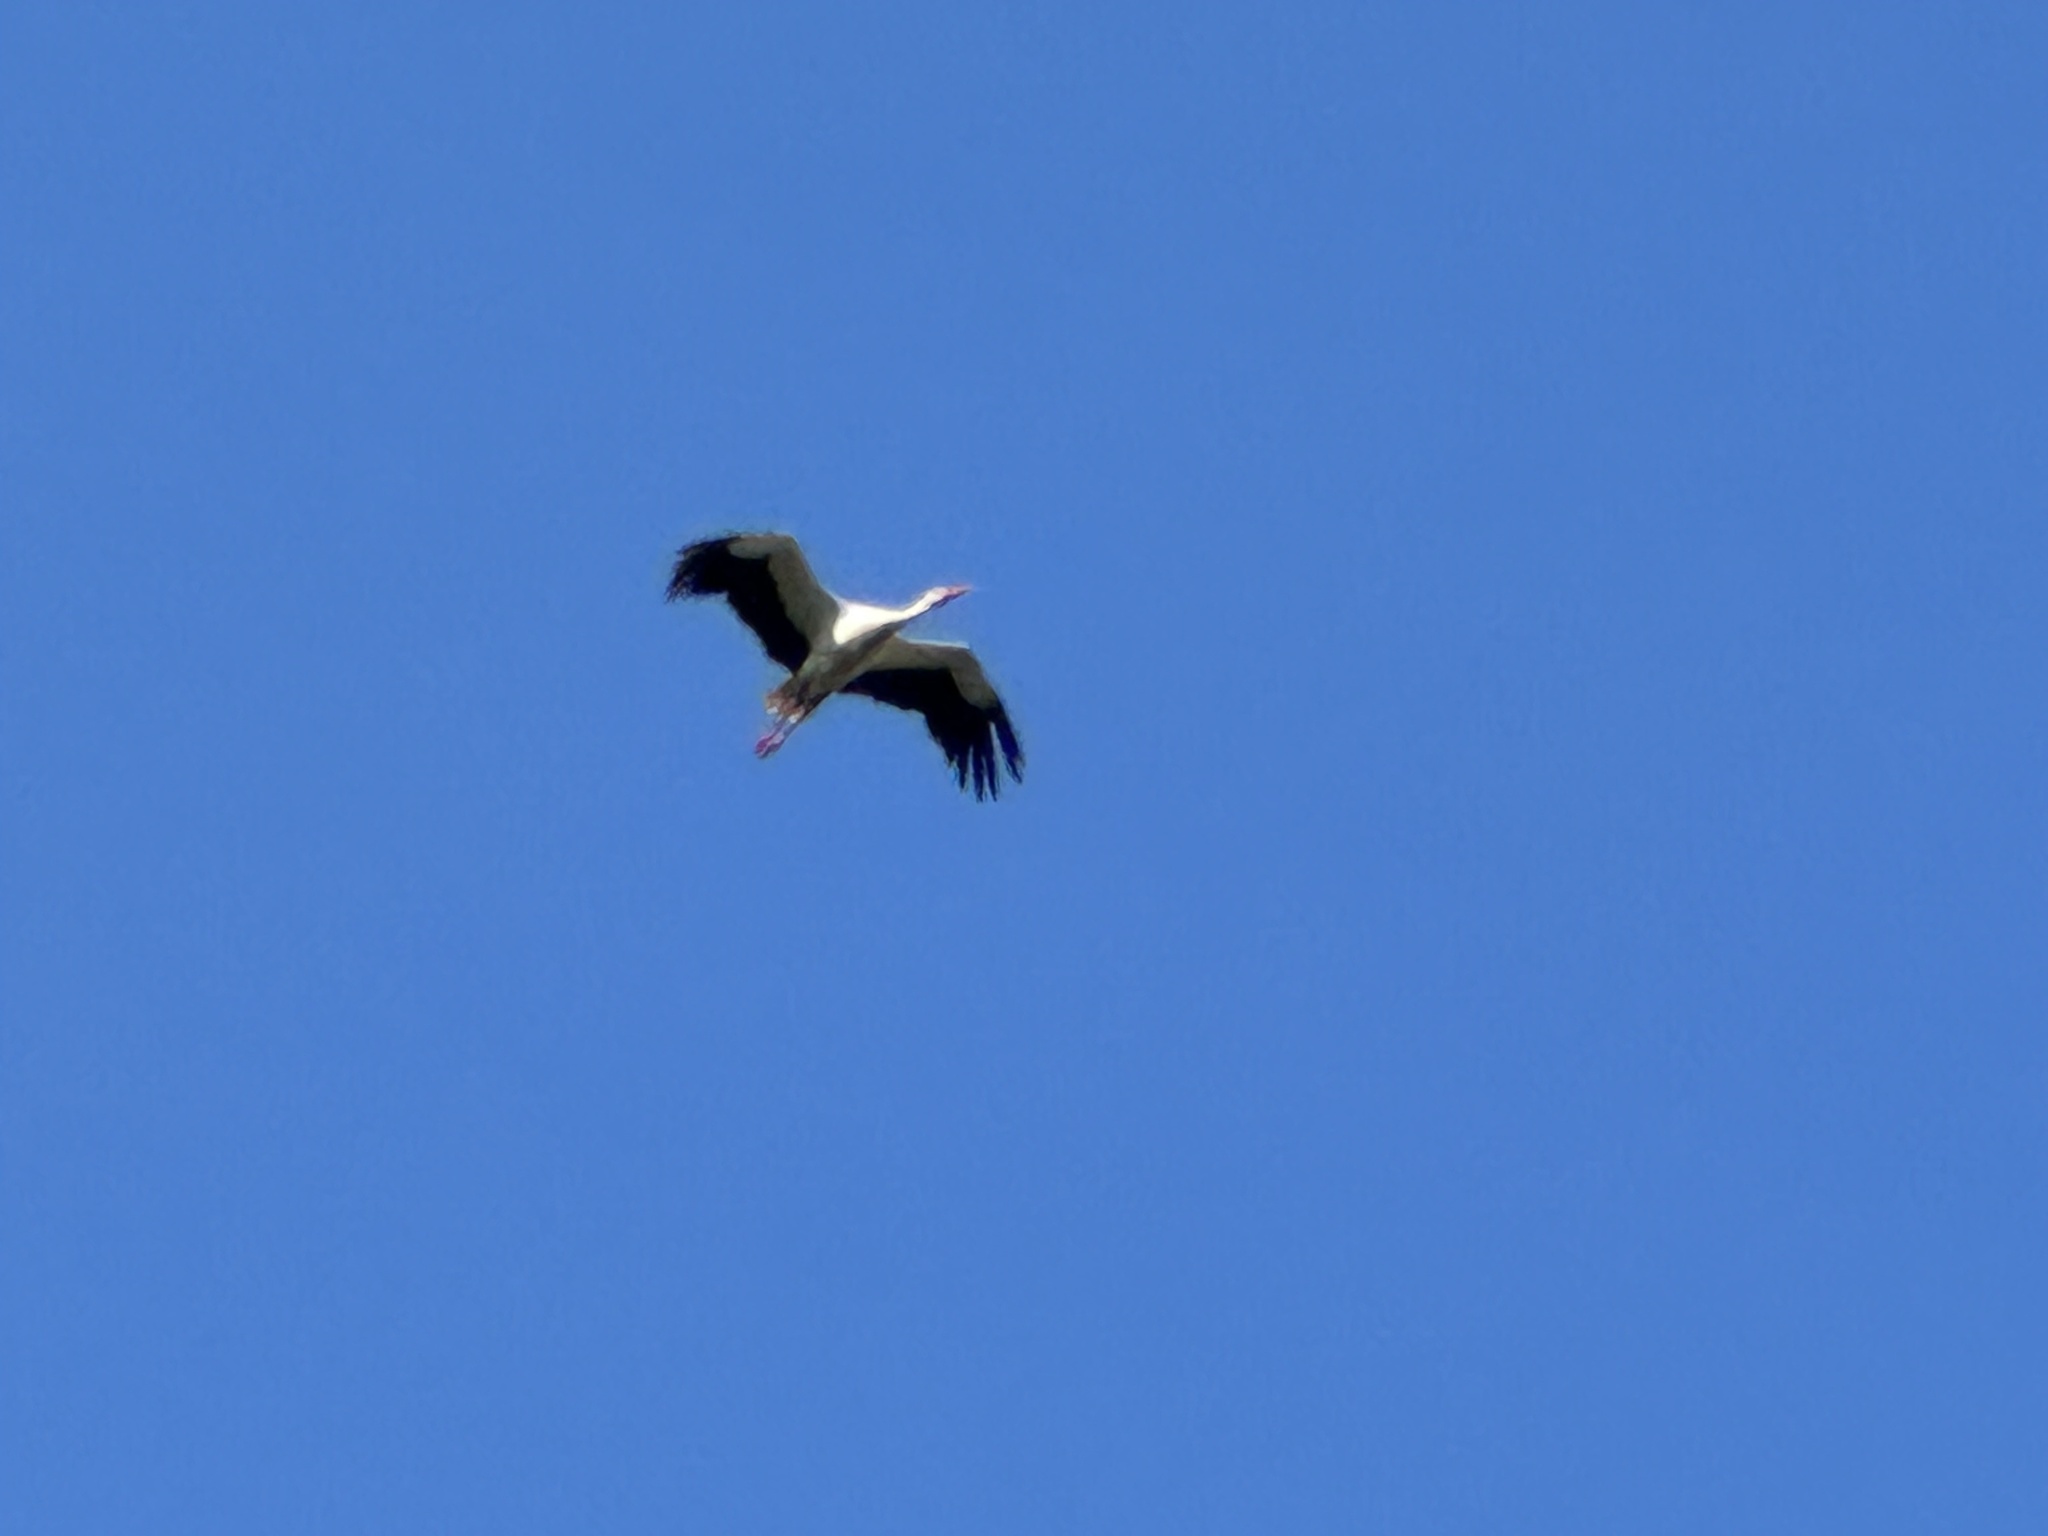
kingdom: Animalia
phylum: Chordata
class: Aves
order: Ciconiiformes
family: Ciconiidae
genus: Ciconia
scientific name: Ciconia ciconia
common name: White stork
